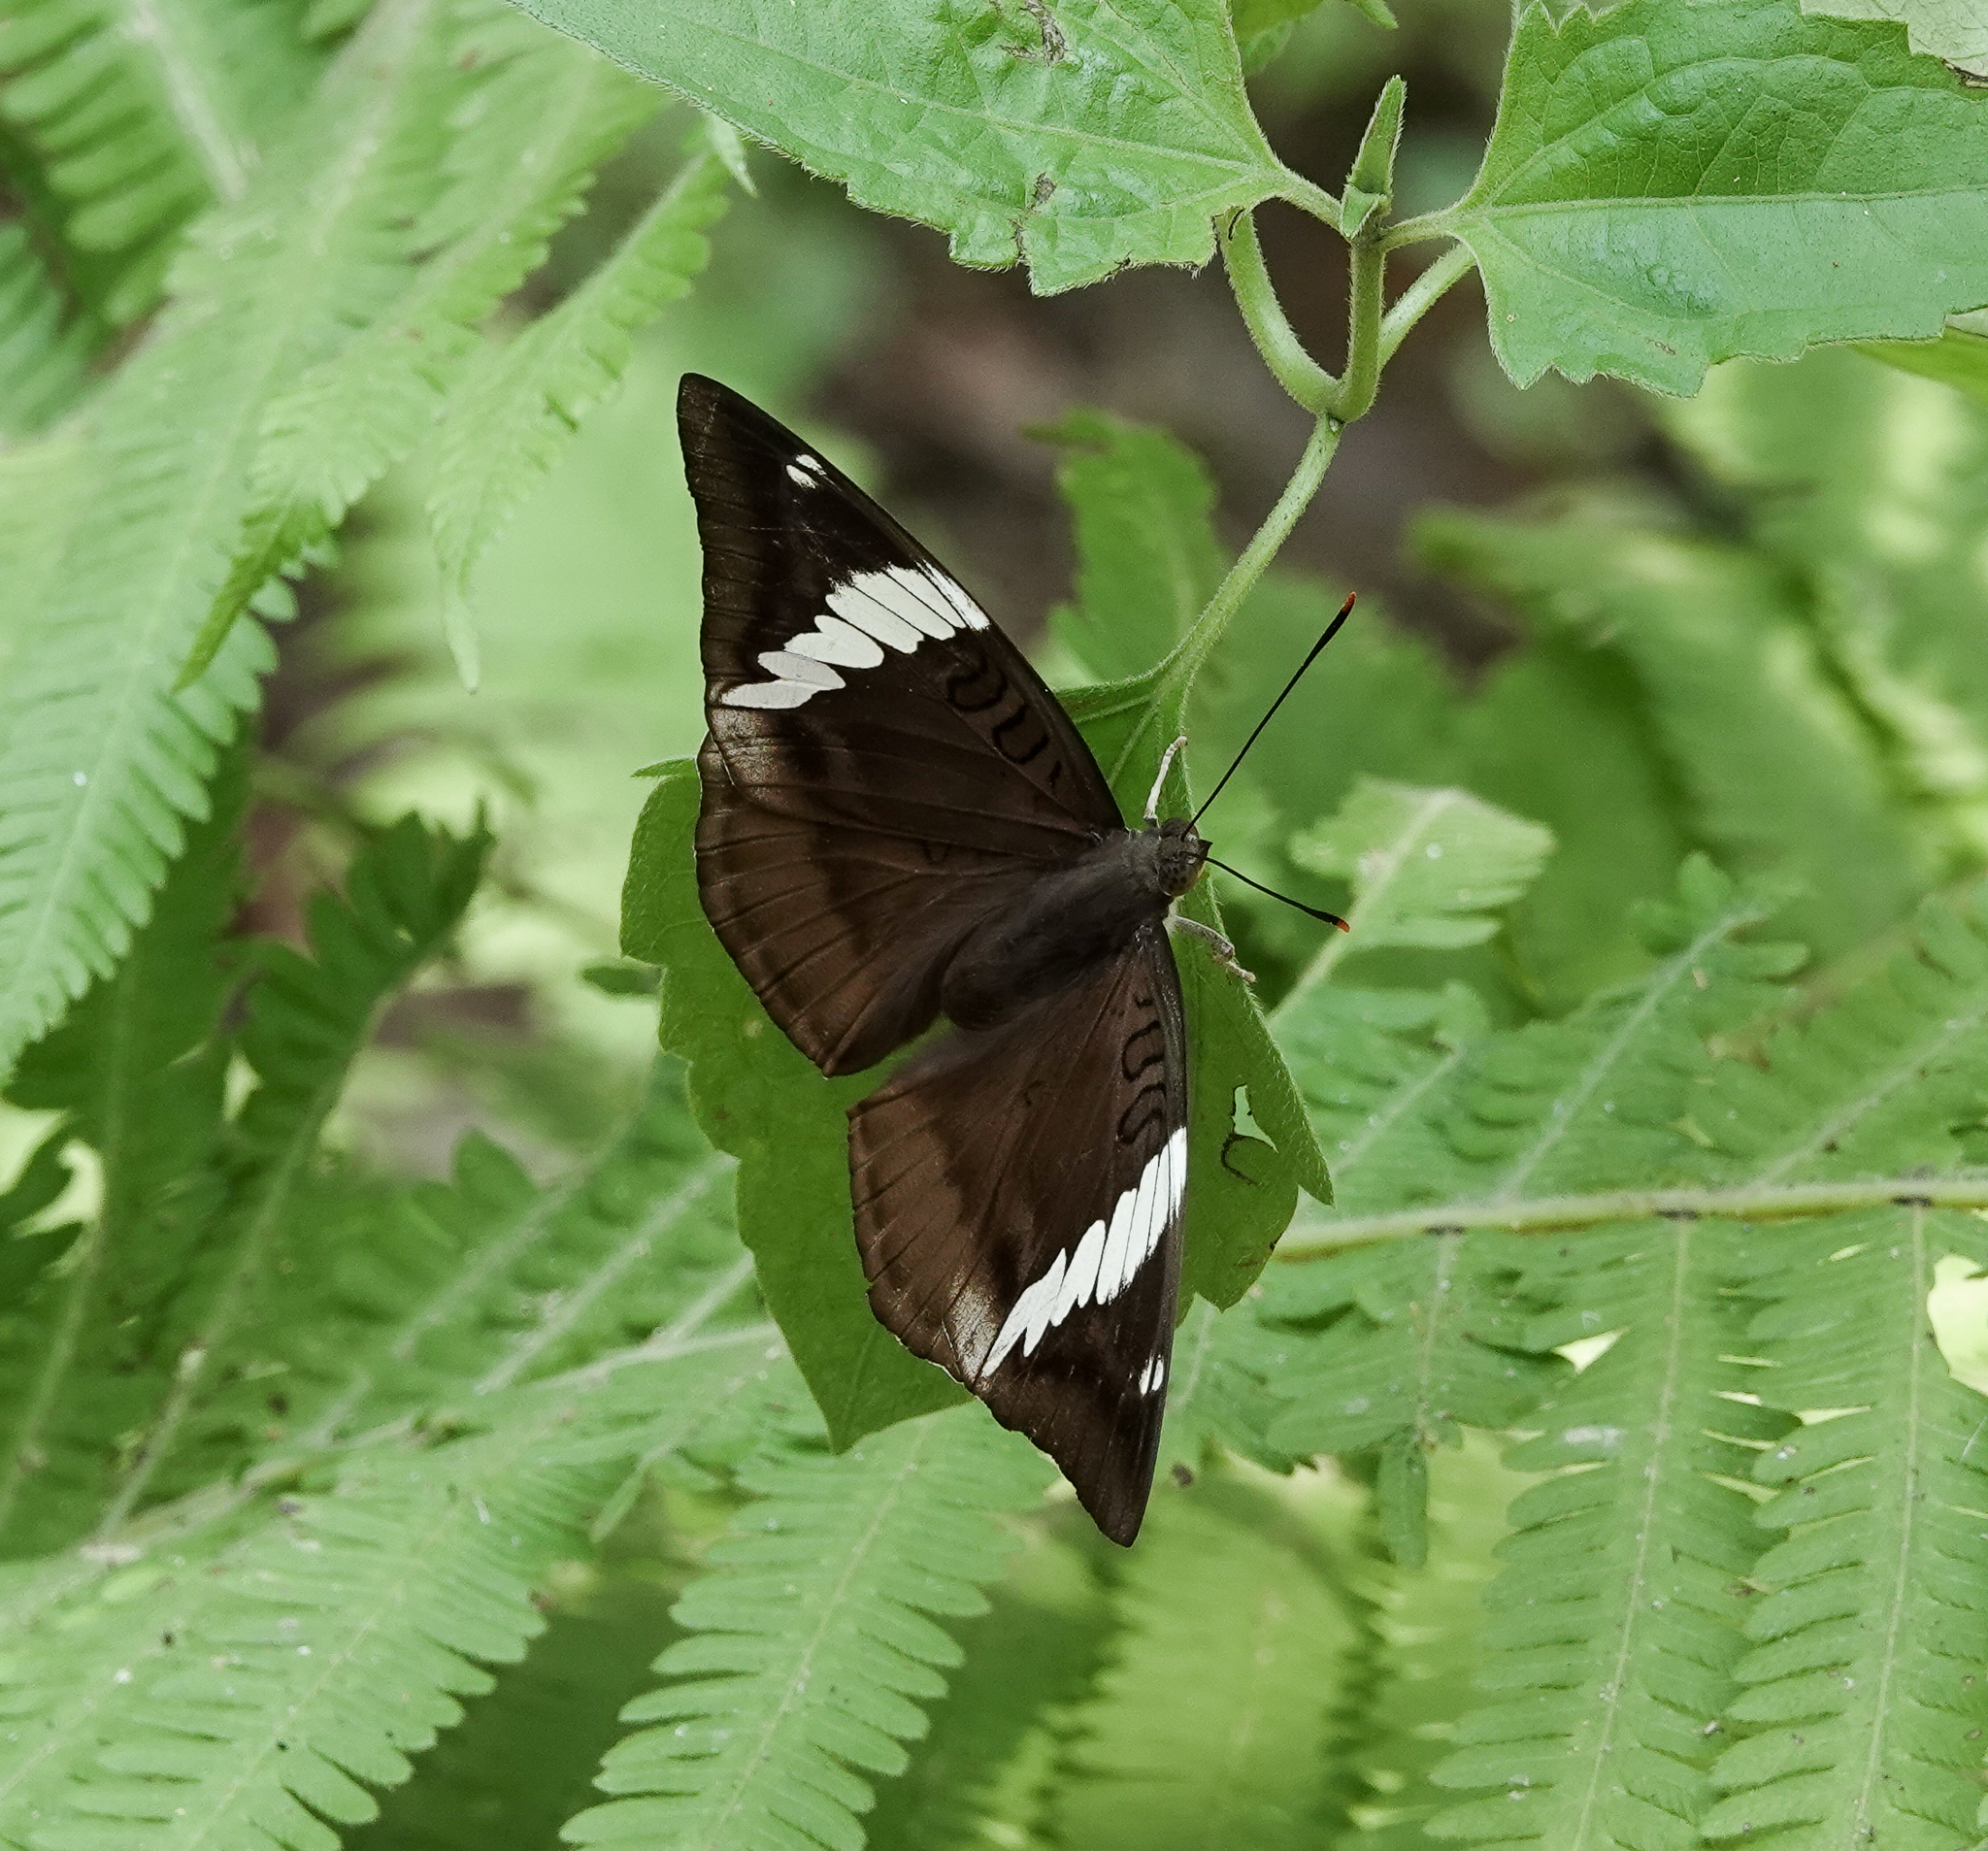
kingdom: Animalia
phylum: Arthropoda
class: Insecta
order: Lepidoptera
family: Nymphalidae
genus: Euthalia
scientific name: Euthalia phemius
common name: White-edged blue baron
